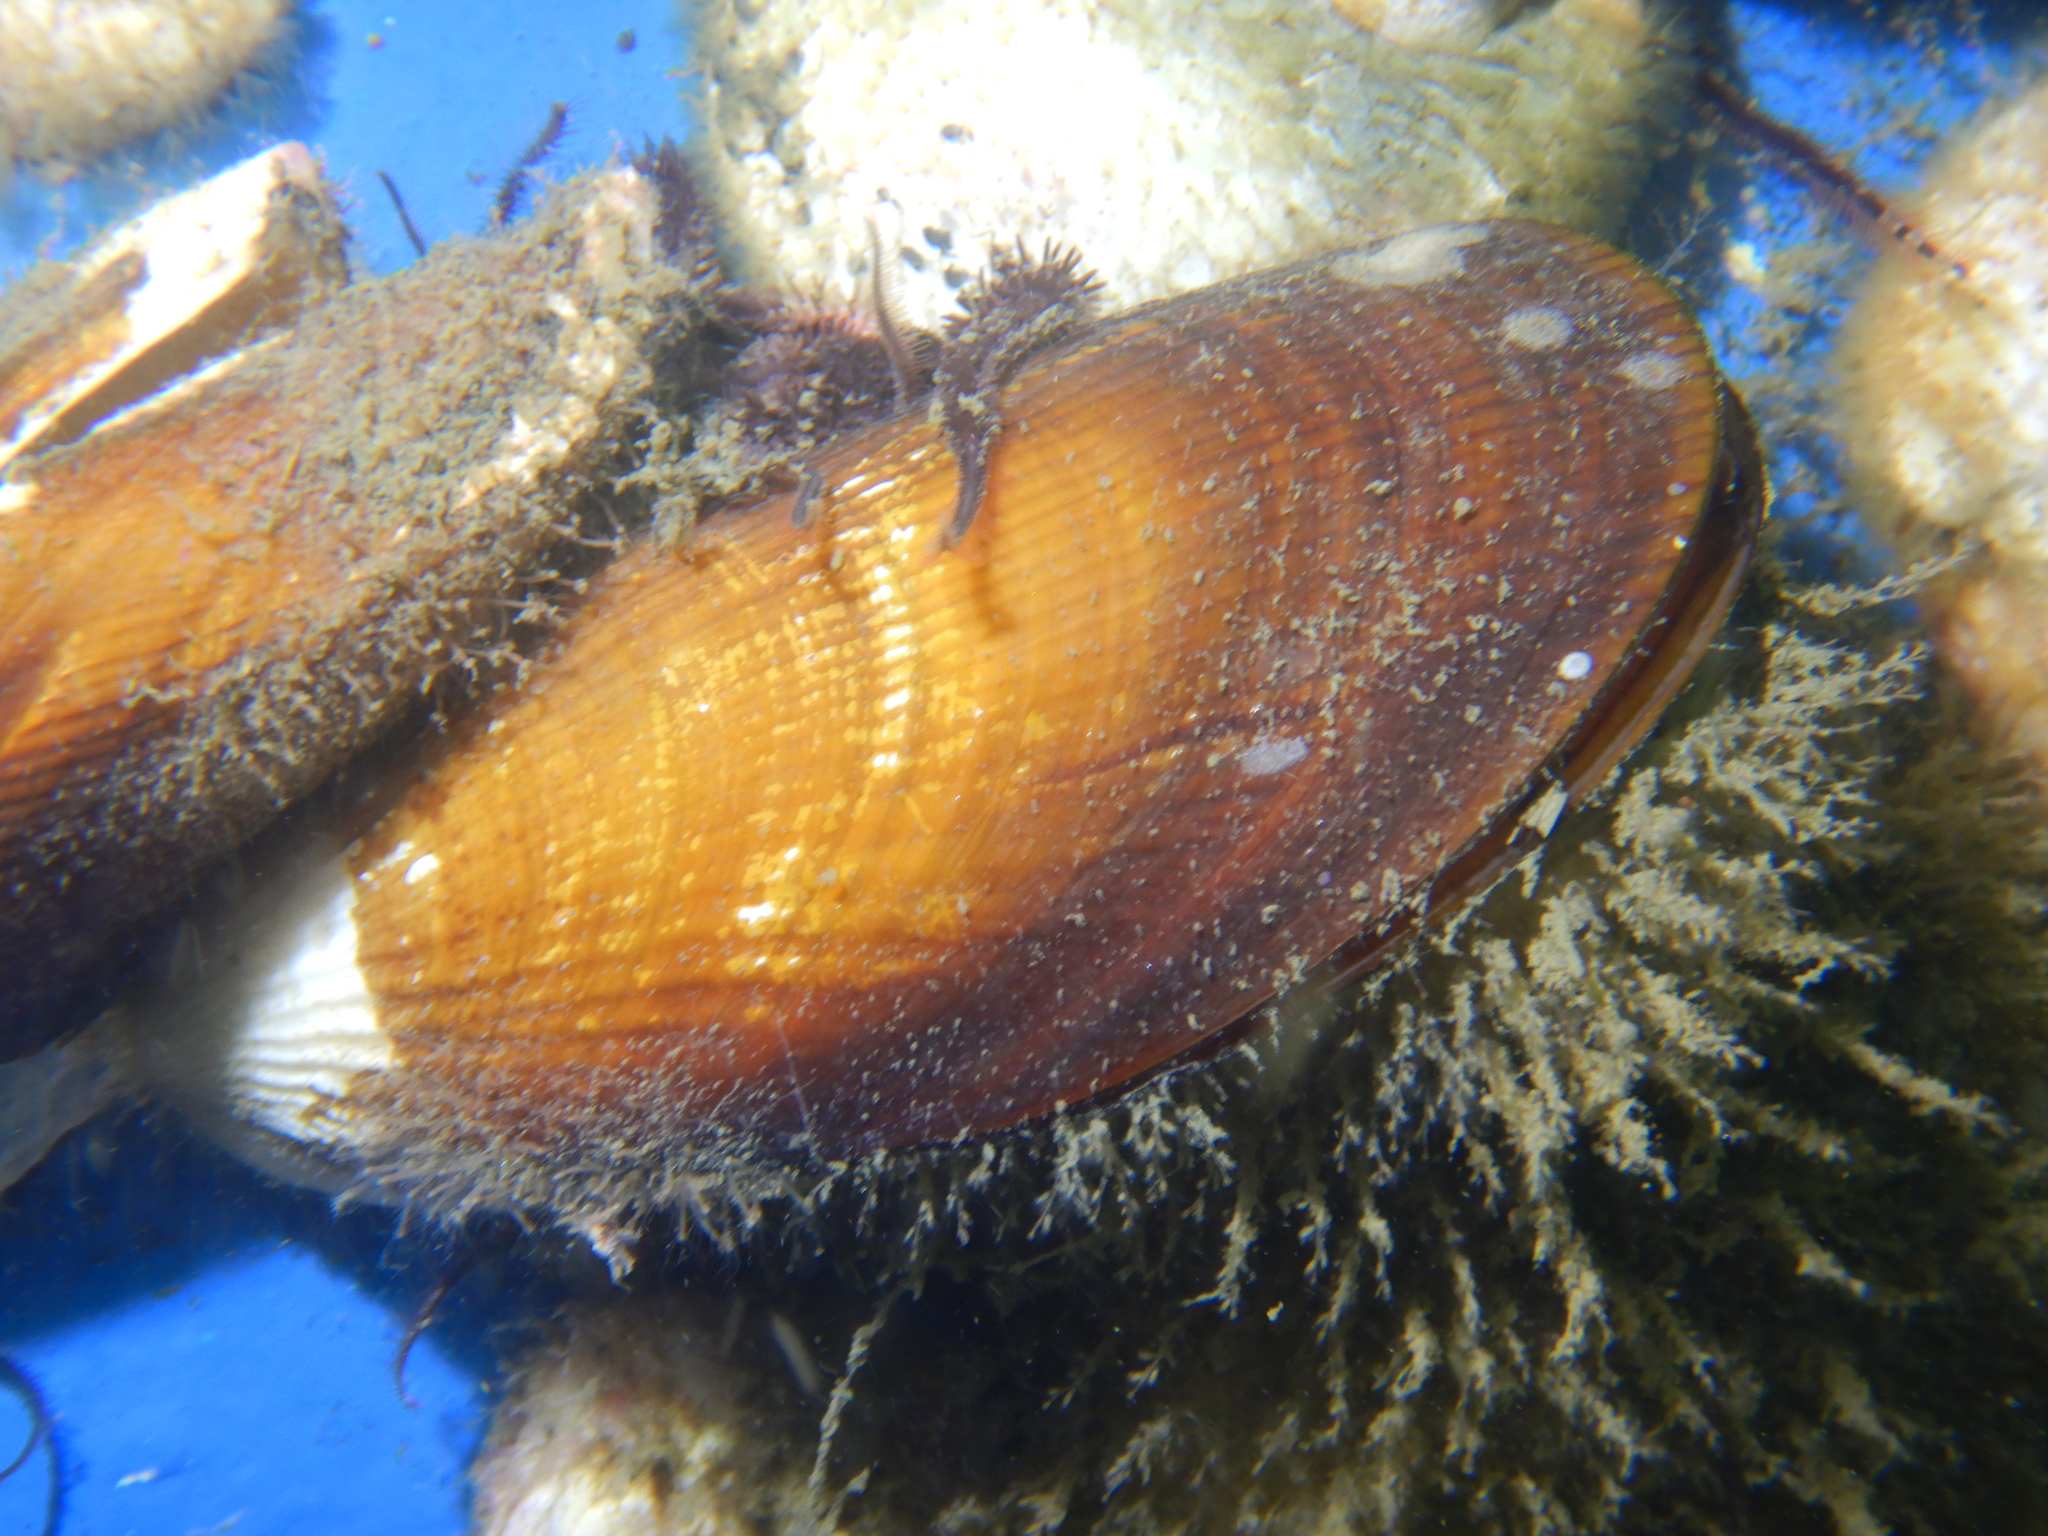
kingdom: Animalia
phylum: Mollusca
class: Bivalvia
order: Mytilida
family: Mytilidae
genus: Aulacomya
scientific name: Aulacomya atra
